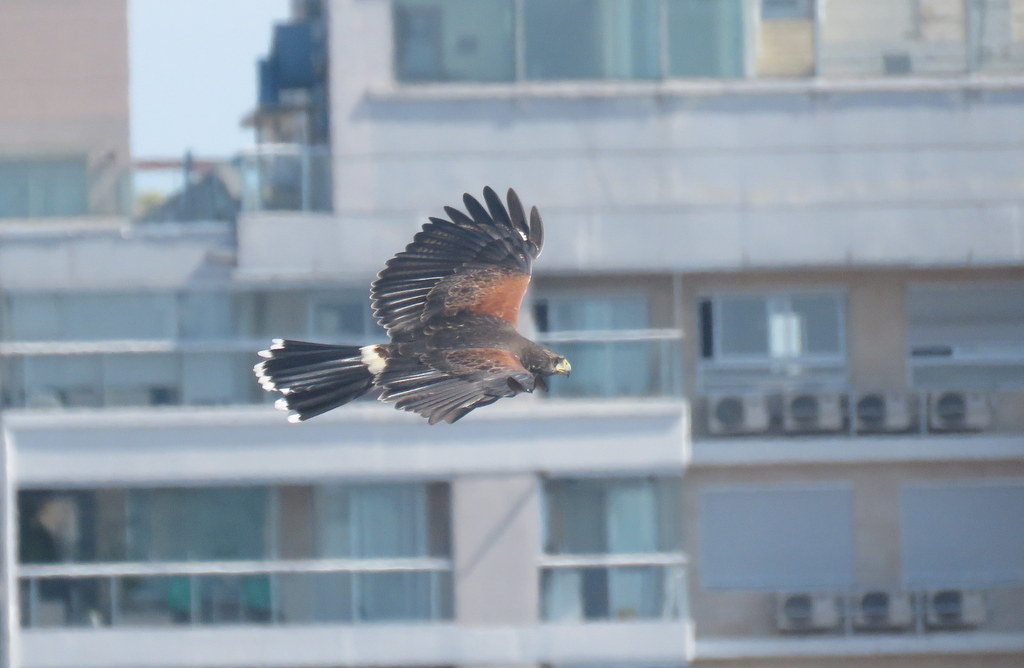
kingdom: Animalia
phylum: Chordata
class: Aves
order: Accipitriformes
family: Accipitridae
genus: Parabuteo
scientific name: Parabuteo unicinctus
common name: Harris's hawk
